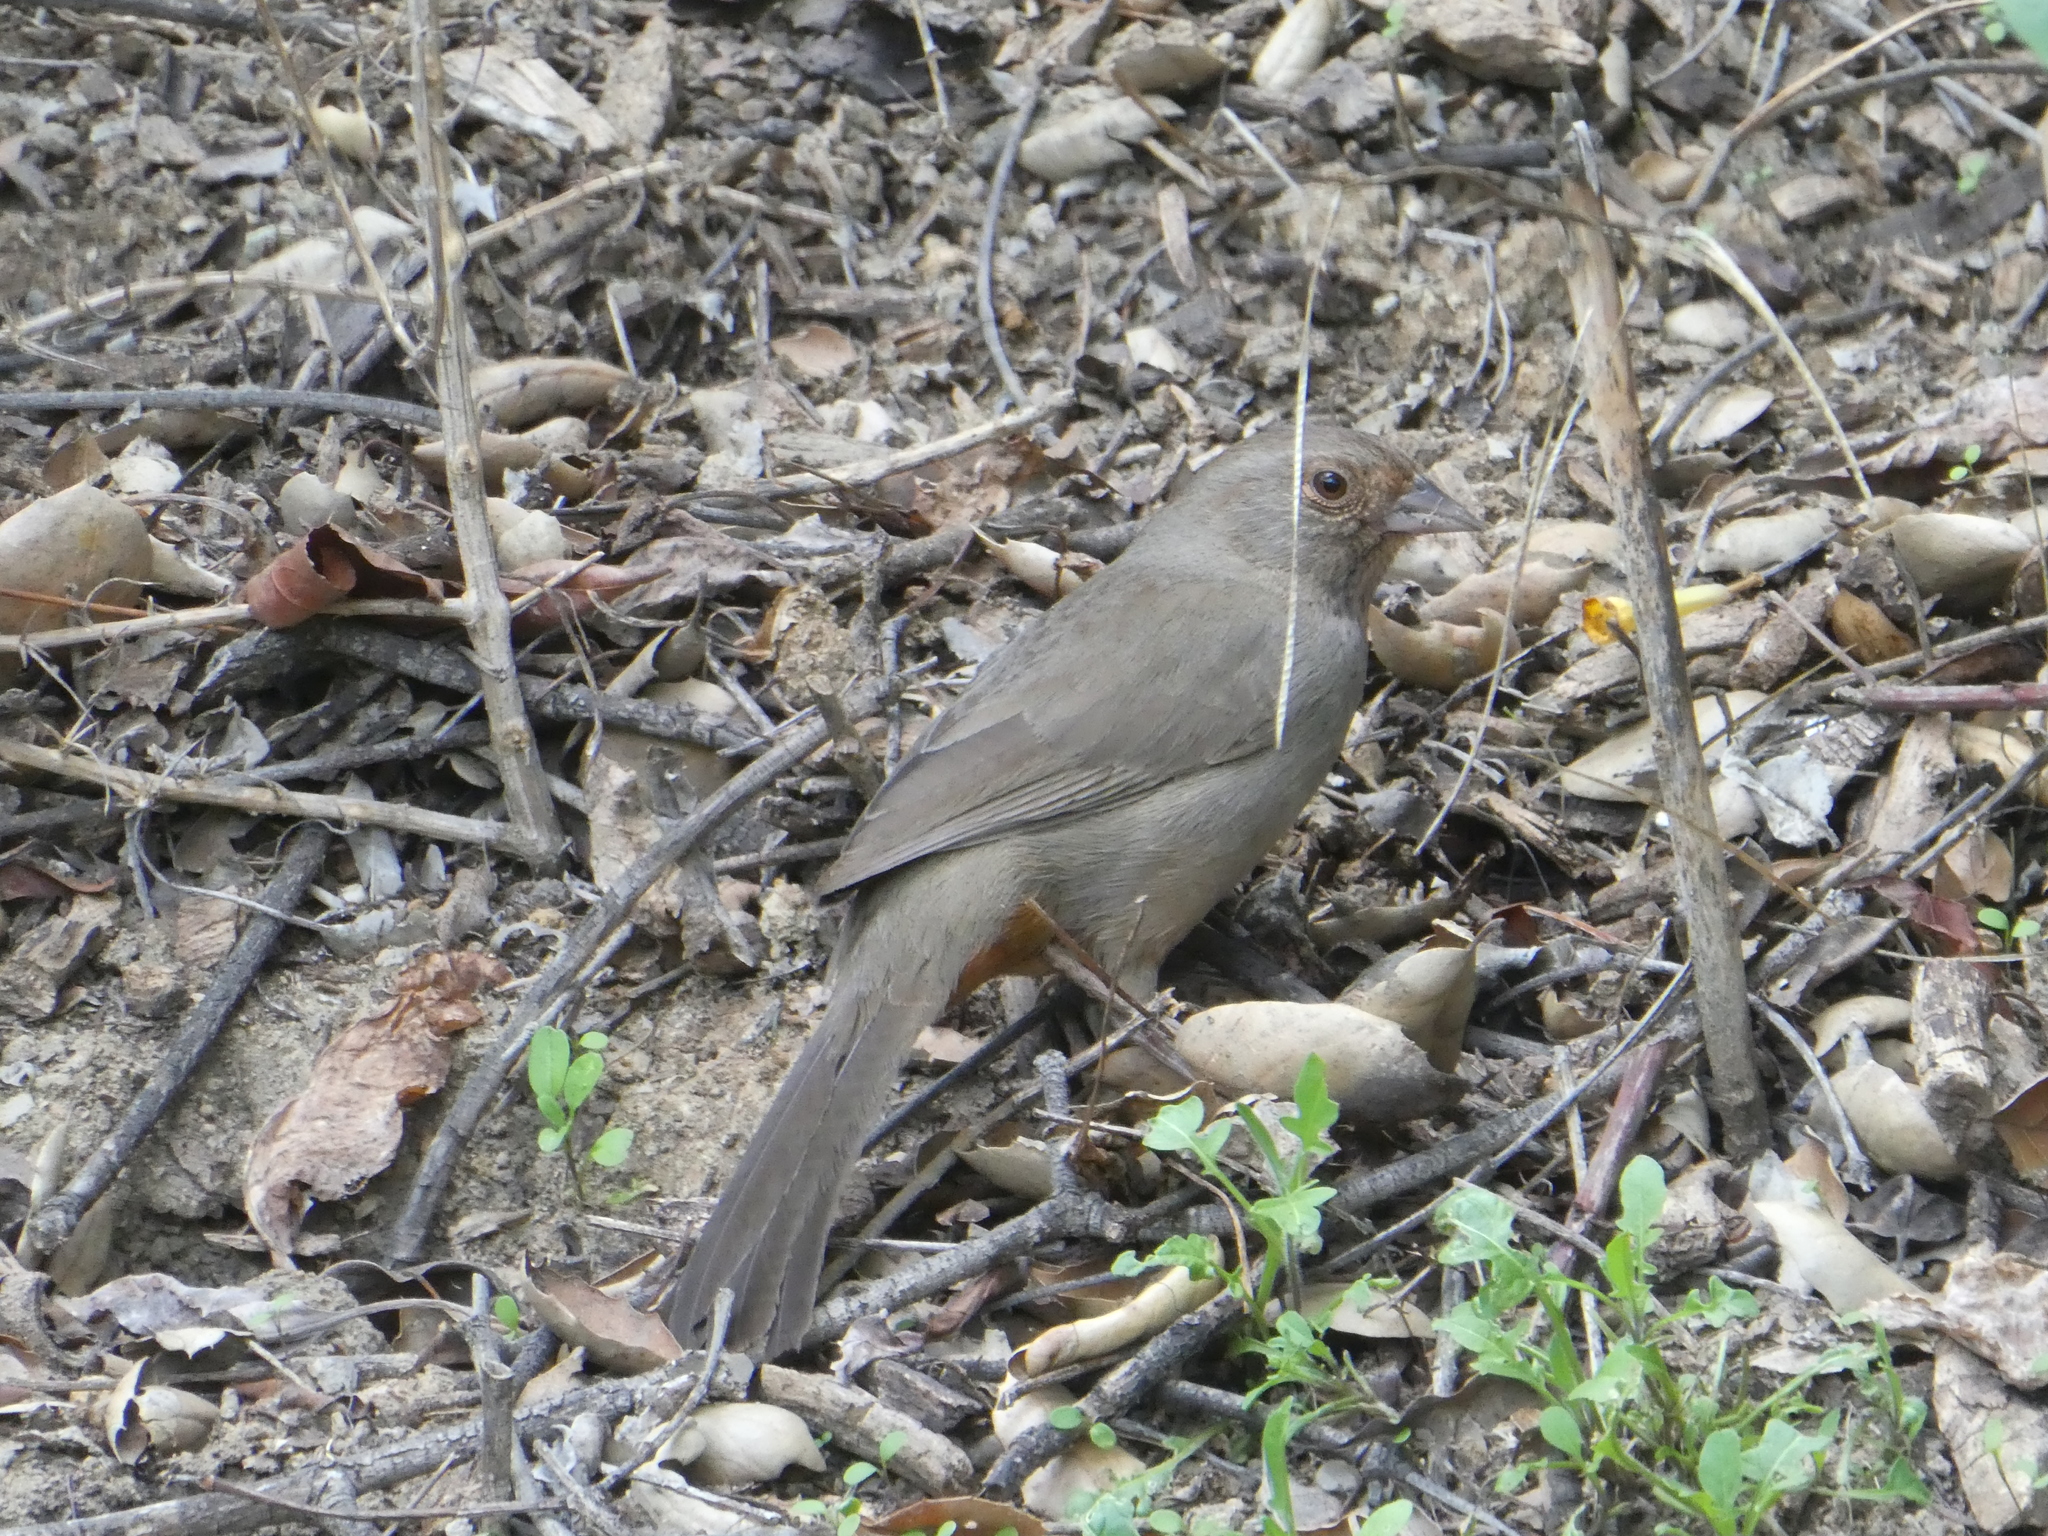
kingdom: Animalia
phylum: Chordata
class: Aves
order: Passeriformes
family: Passerellidae
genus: Melozone
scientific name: Melozone crissalis
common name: California towhee
